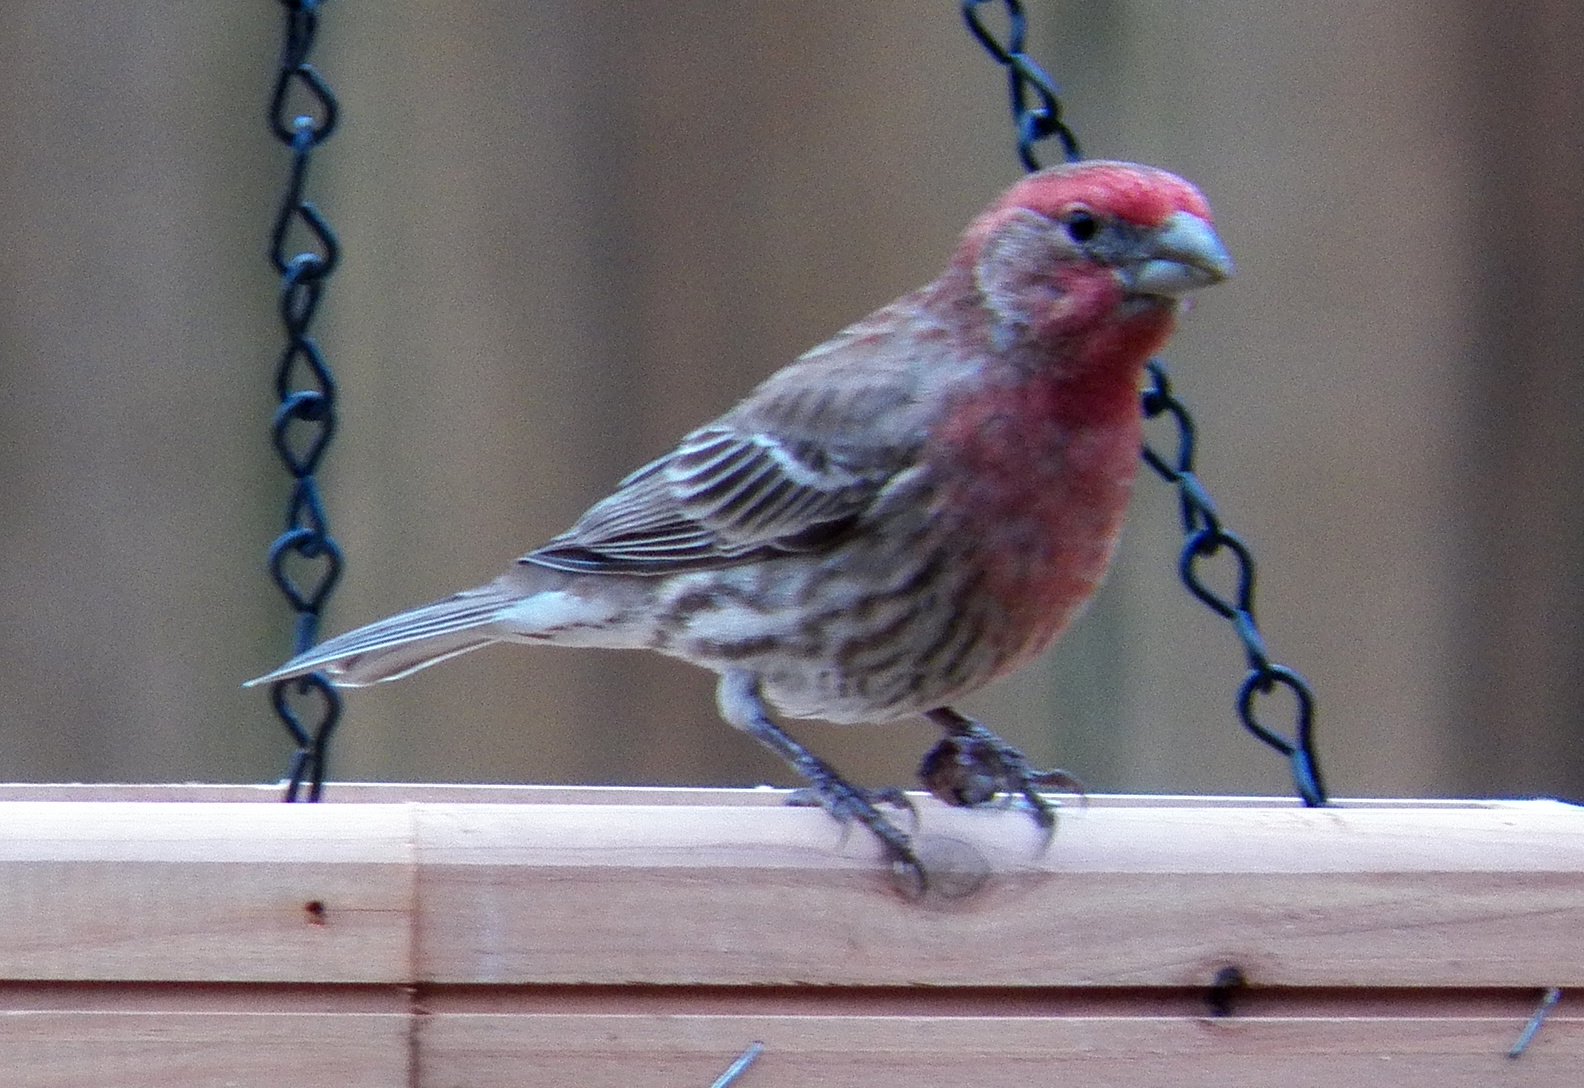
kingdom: Animalia
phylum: Chordata
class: Aves
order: Passeriformes
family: Fringillidae
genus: Haemorhous
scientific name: Haemorhous mexicanus
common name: House finch
